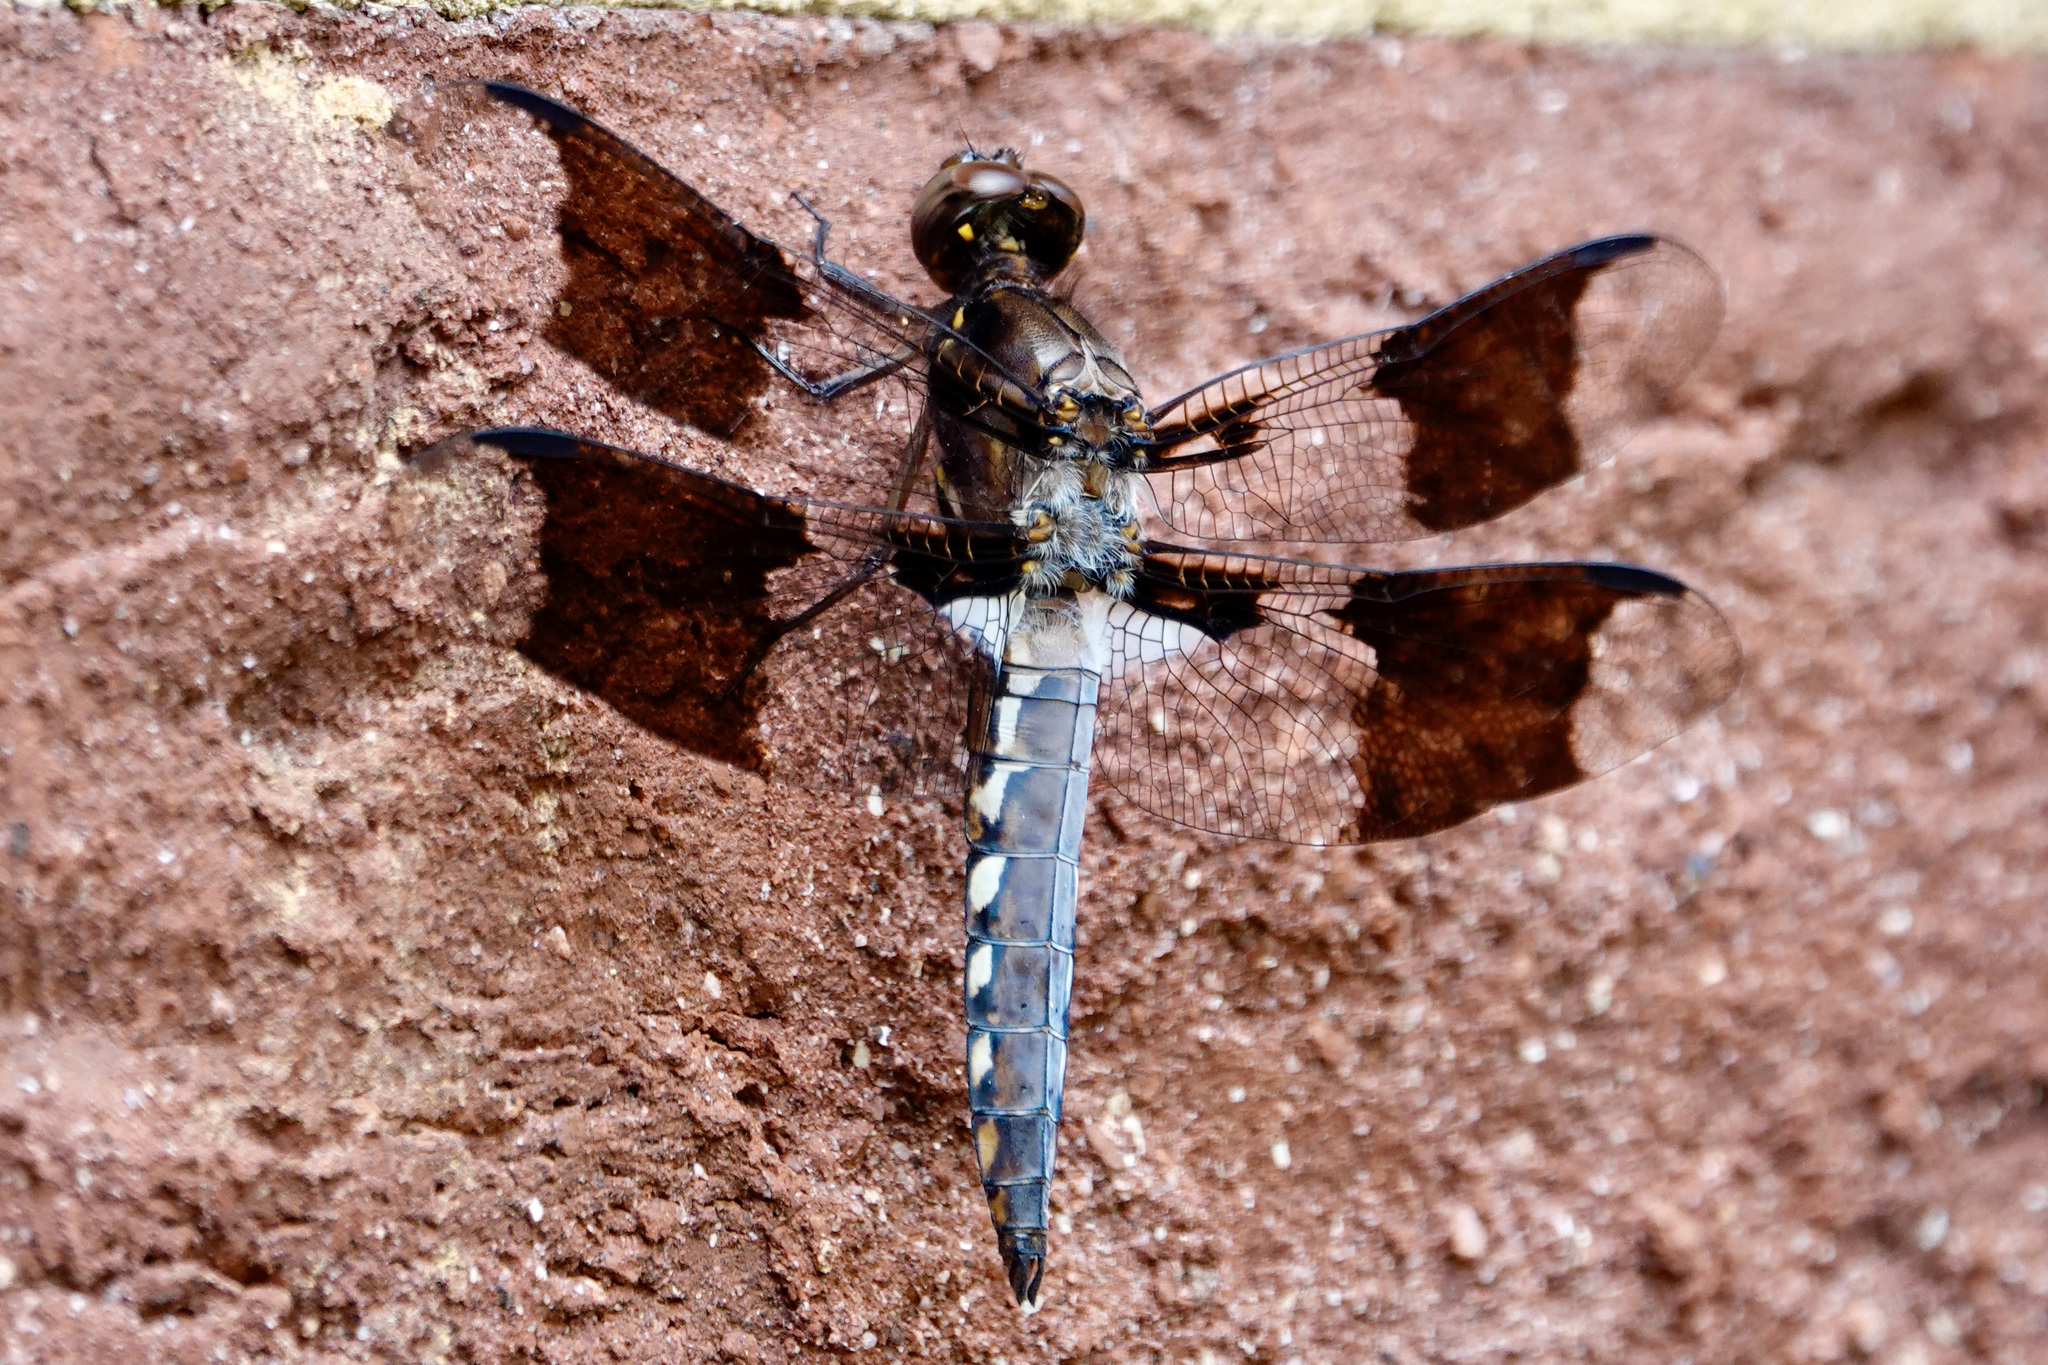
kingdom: Animalia
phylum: Arthropoda
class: Insecta
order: Odonata
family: Libellulidae
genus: Plathemis
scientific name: Plathemis lydia
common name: Common whitetail
